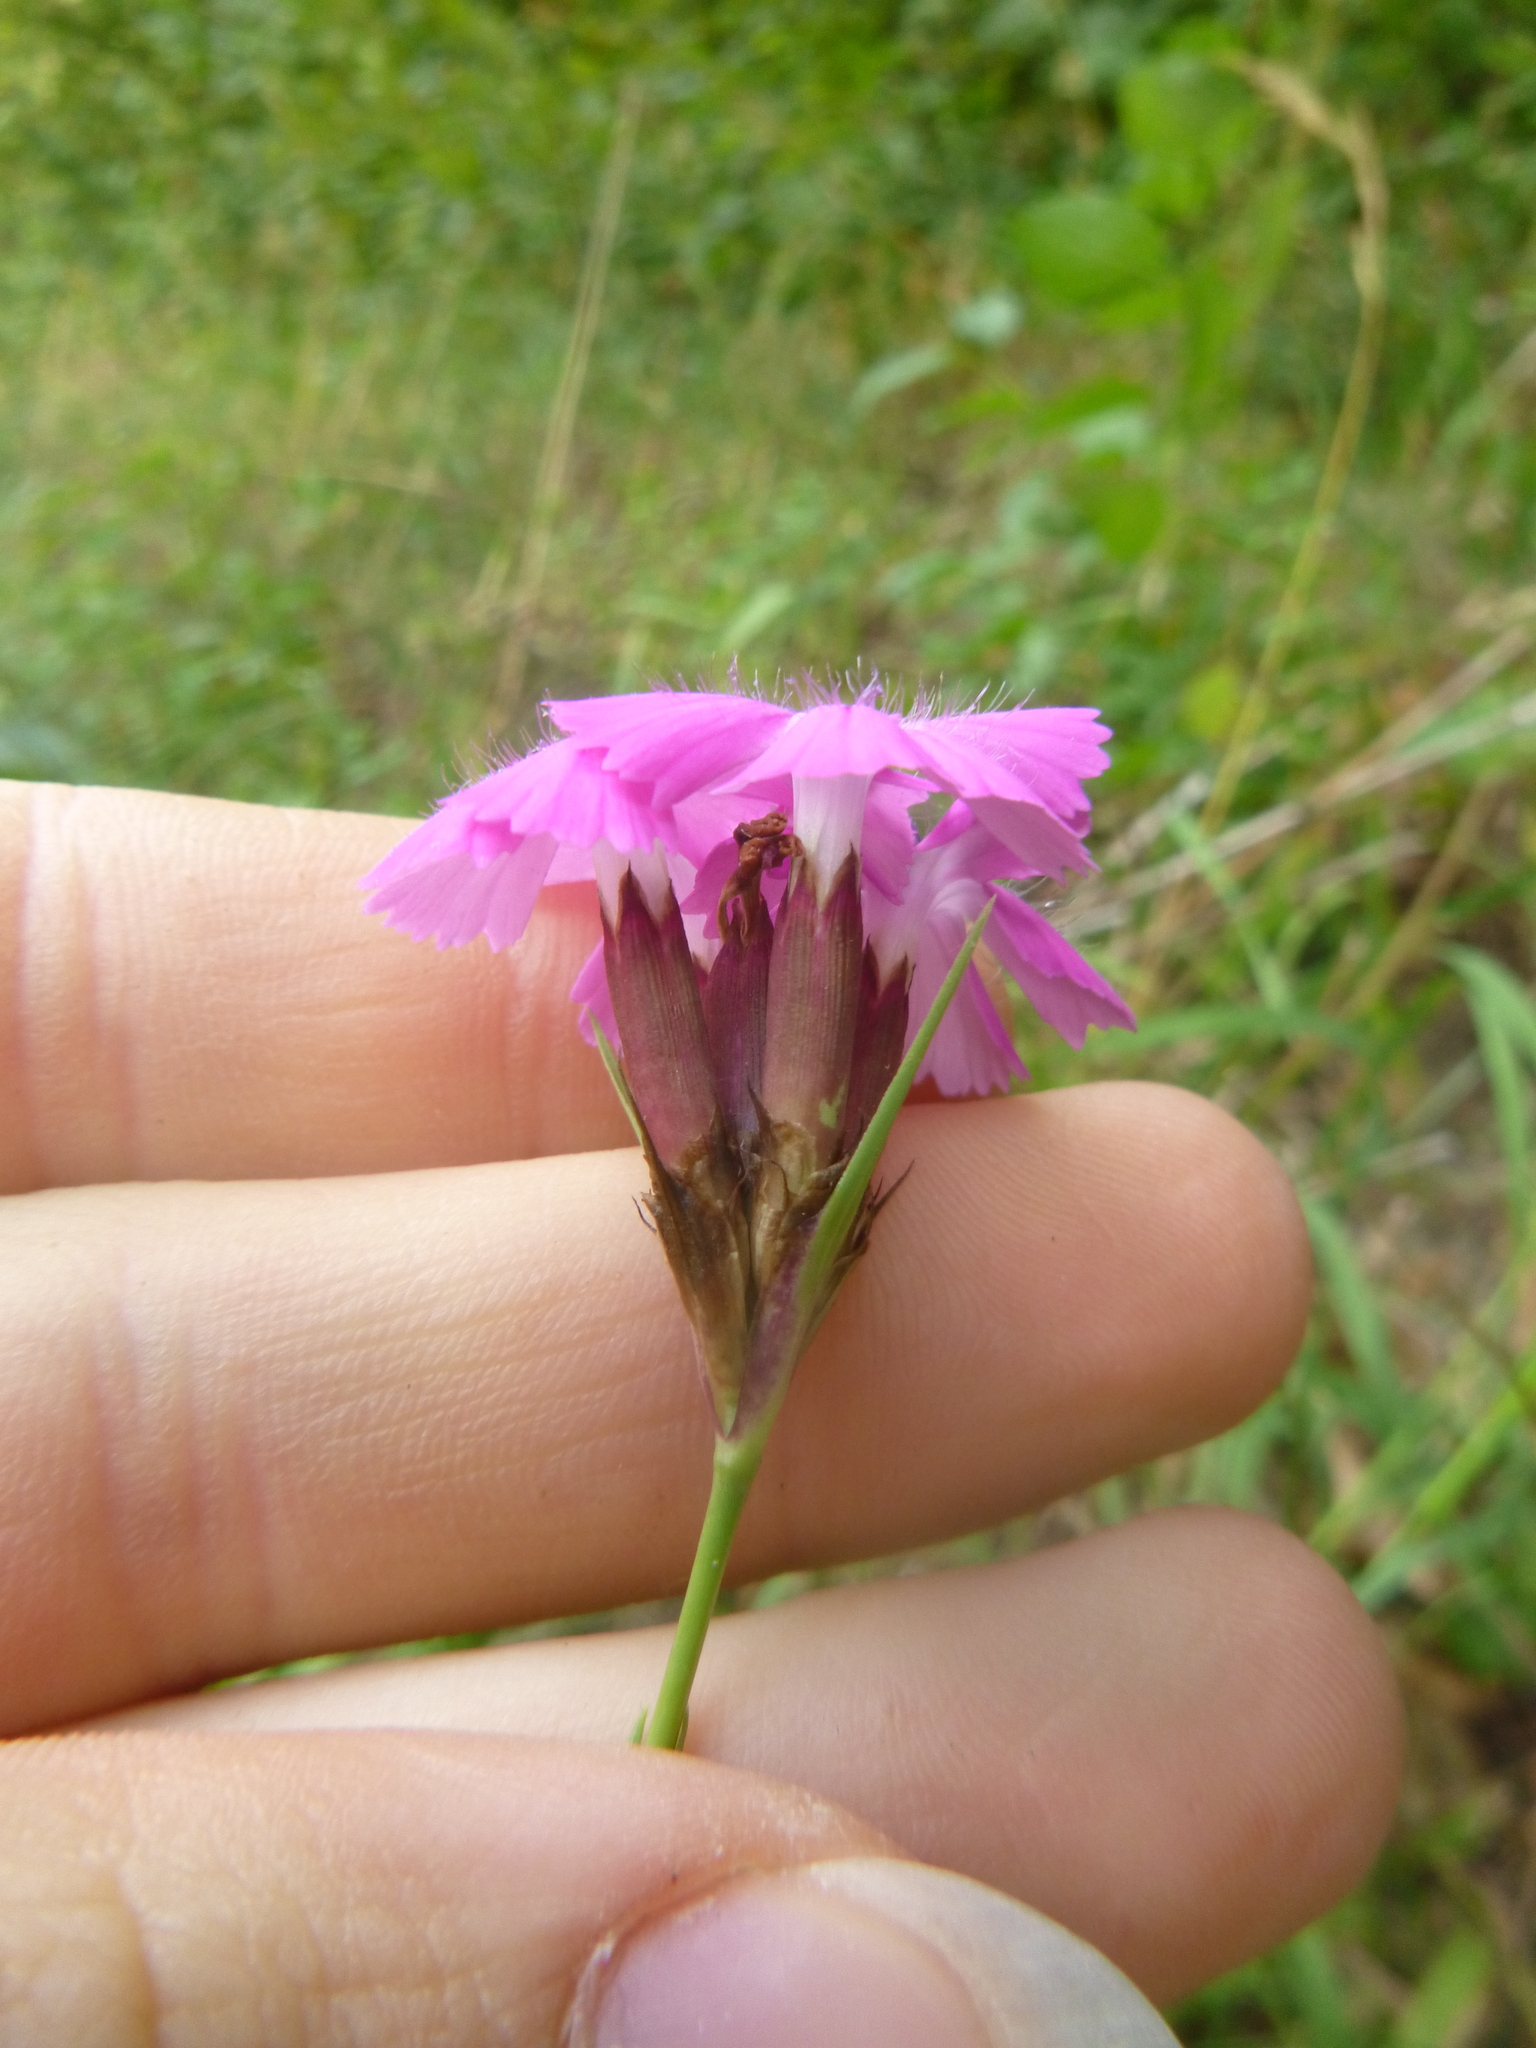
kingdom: Plantae
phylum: Tracheophyta
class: Magnoliopsida
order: Caryophyllales
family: Caryophyllaceae
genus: Dianthus
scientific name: Dianthus carthusianorum
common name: Carthusian pink
